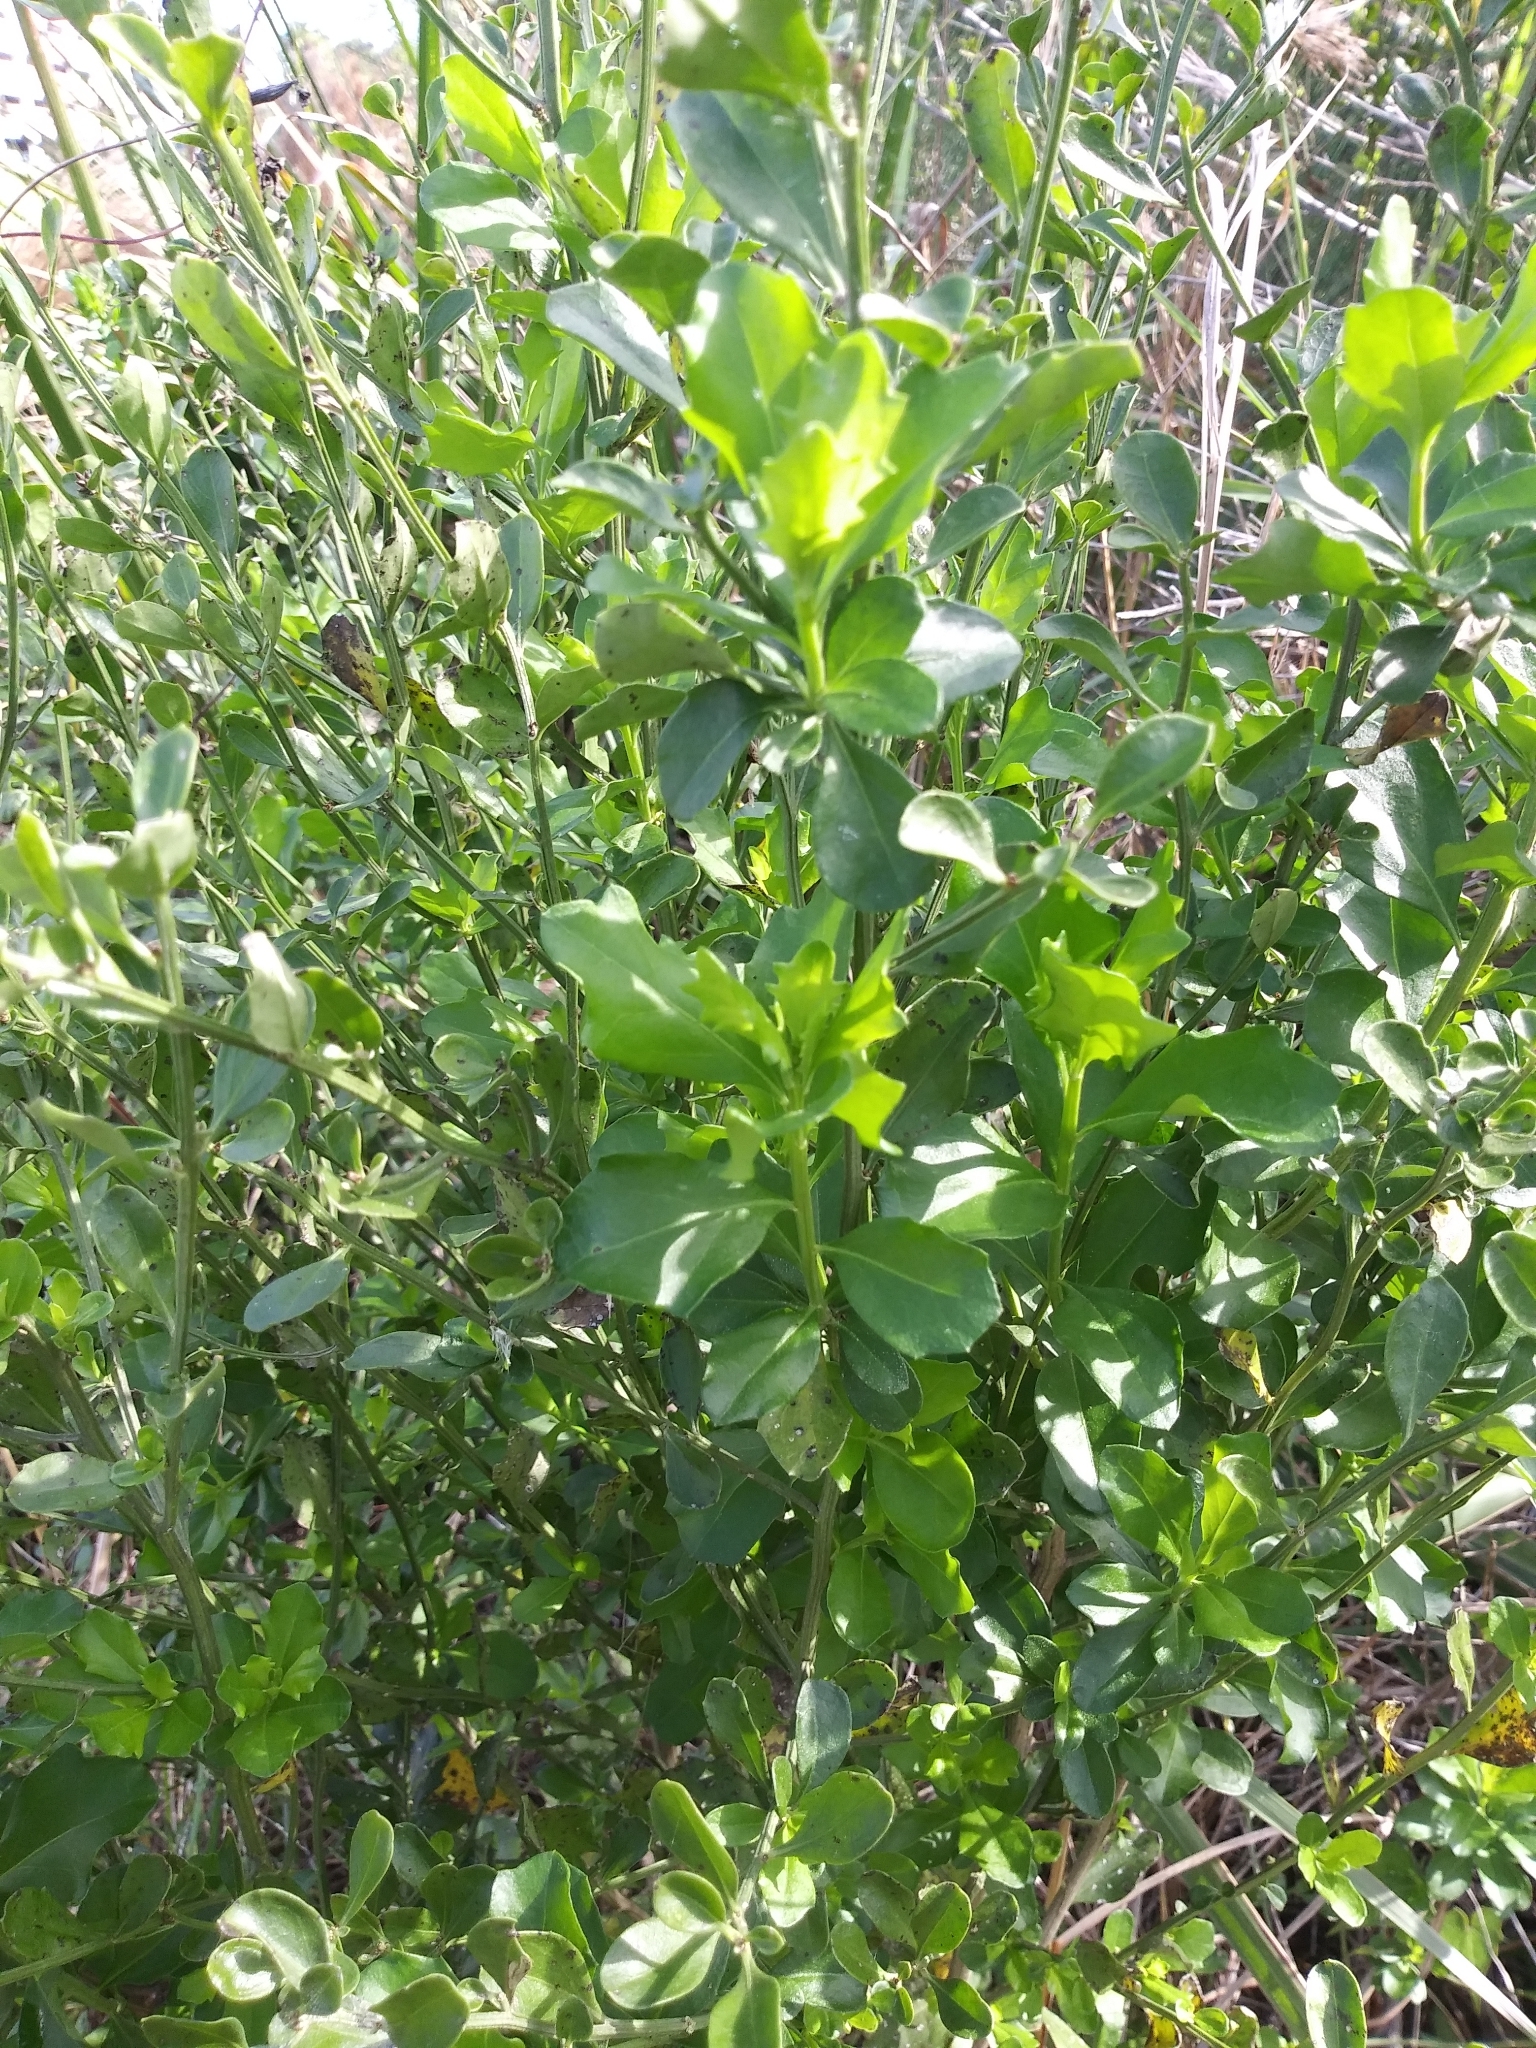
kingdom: Plantae
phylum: Tracheophyta
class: Magnoliopsida
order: Asterales
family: Asteraceae
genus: Baccharis
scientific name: Baccharis glomeruliflora
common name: Silverling groundsel bush
